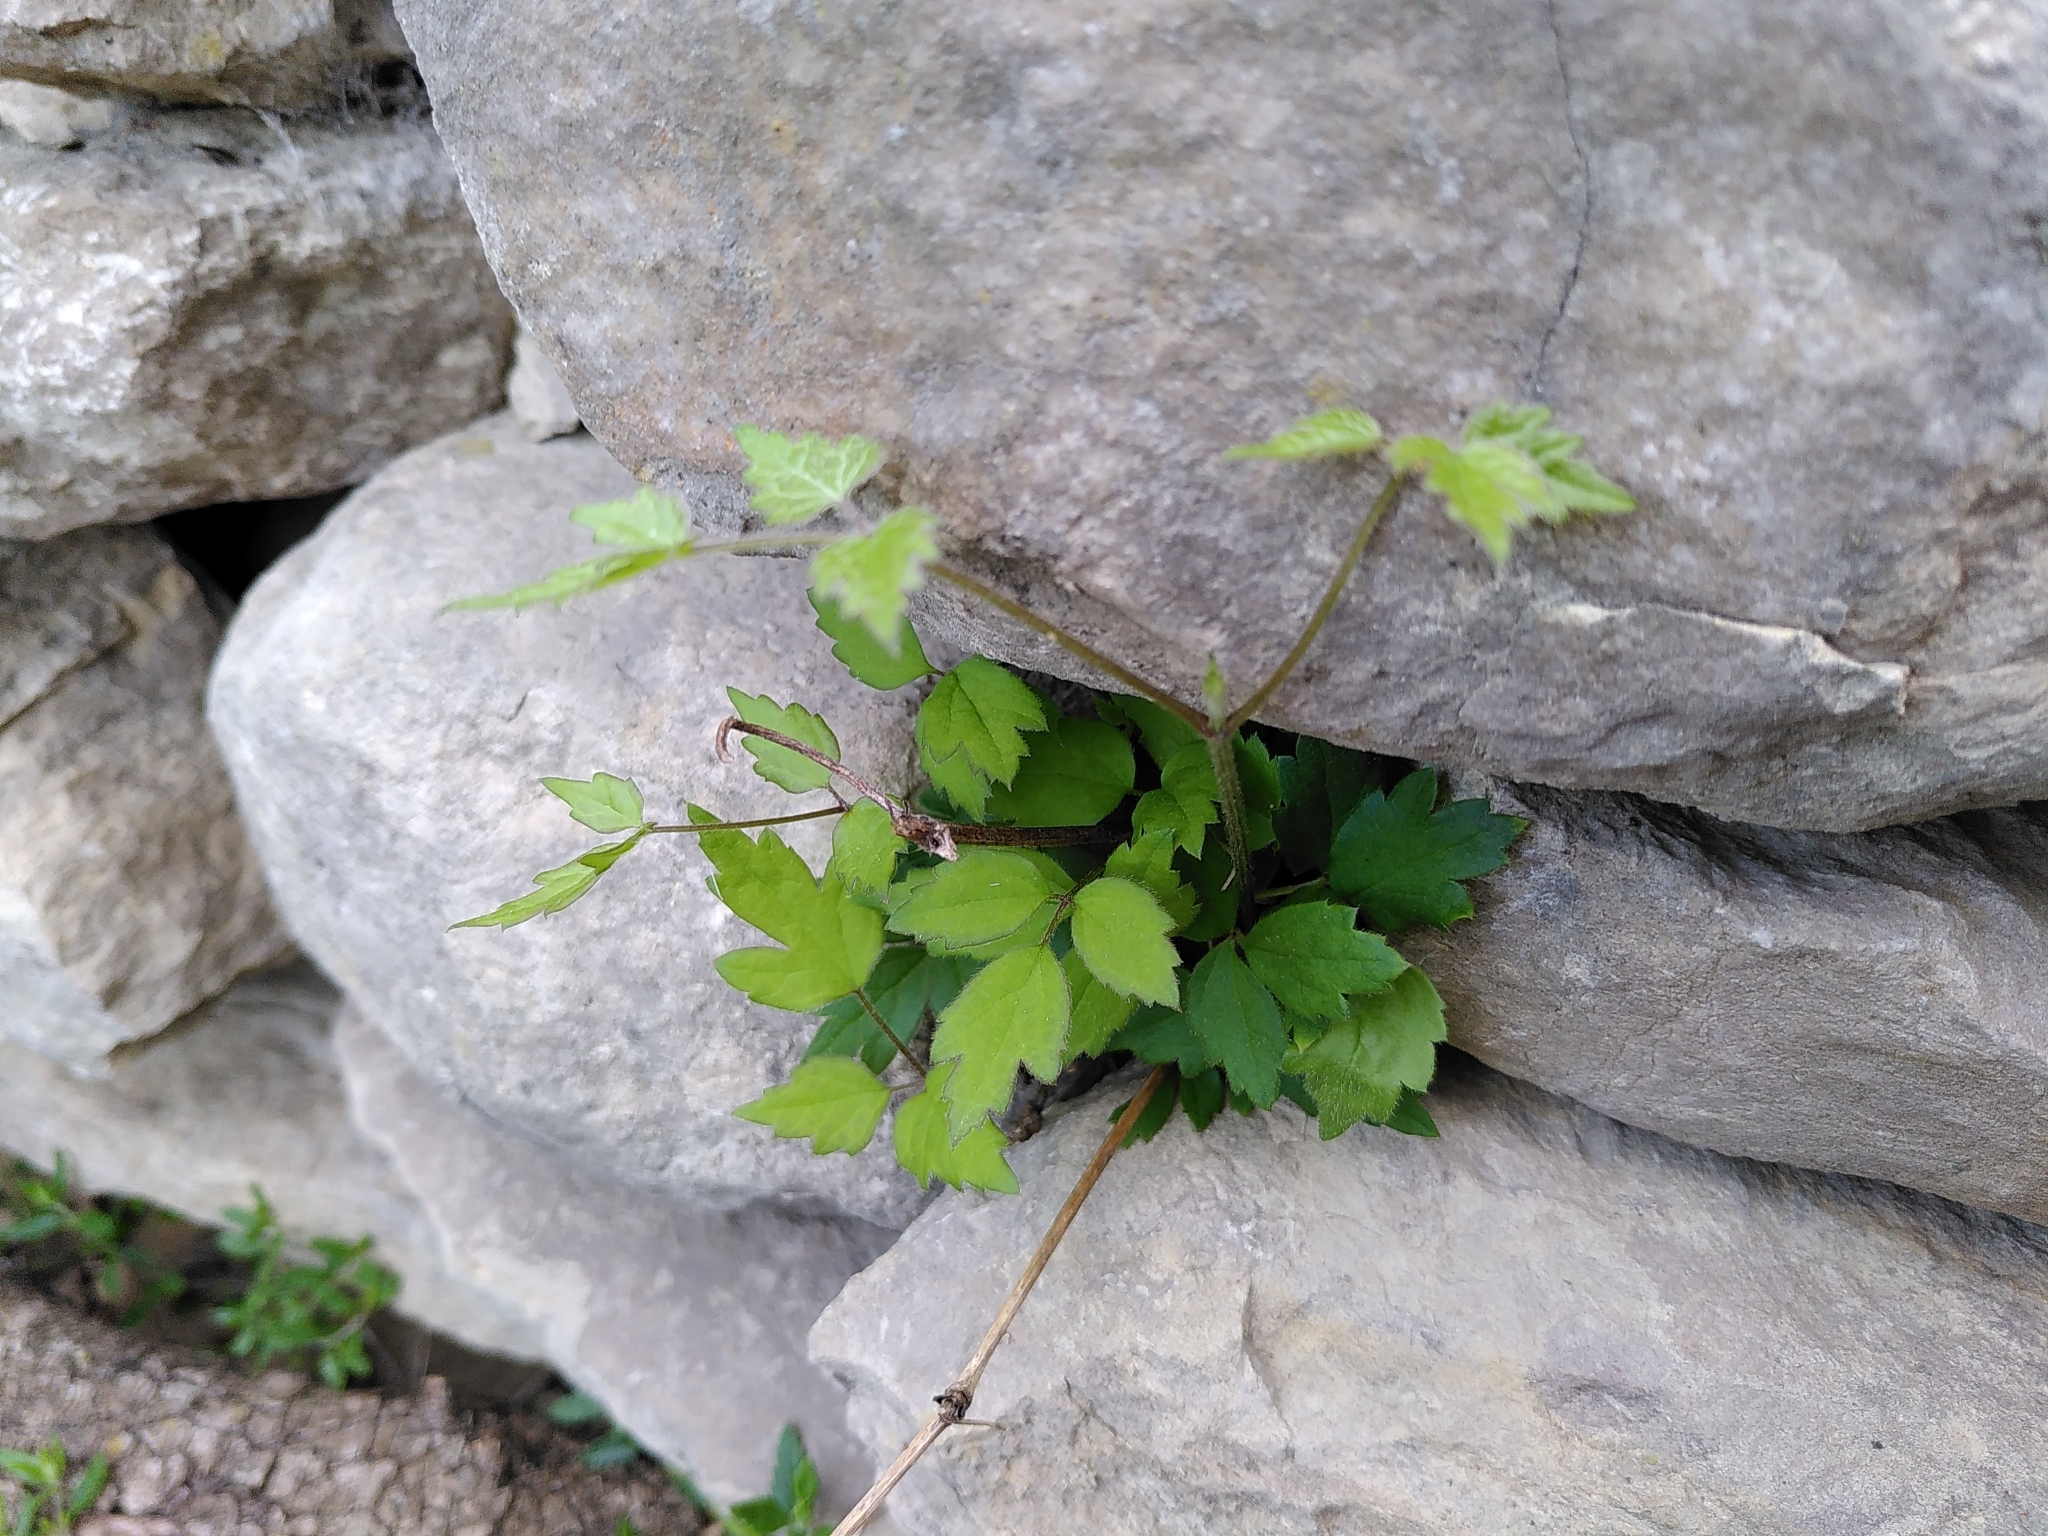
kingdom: Plantae
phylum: Tracheophyta
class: Magnoliopsida
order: Ranunculales
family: Ranunculaceae
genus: Clematis
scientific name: Clematis vitalba
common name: Evergreen clematis
